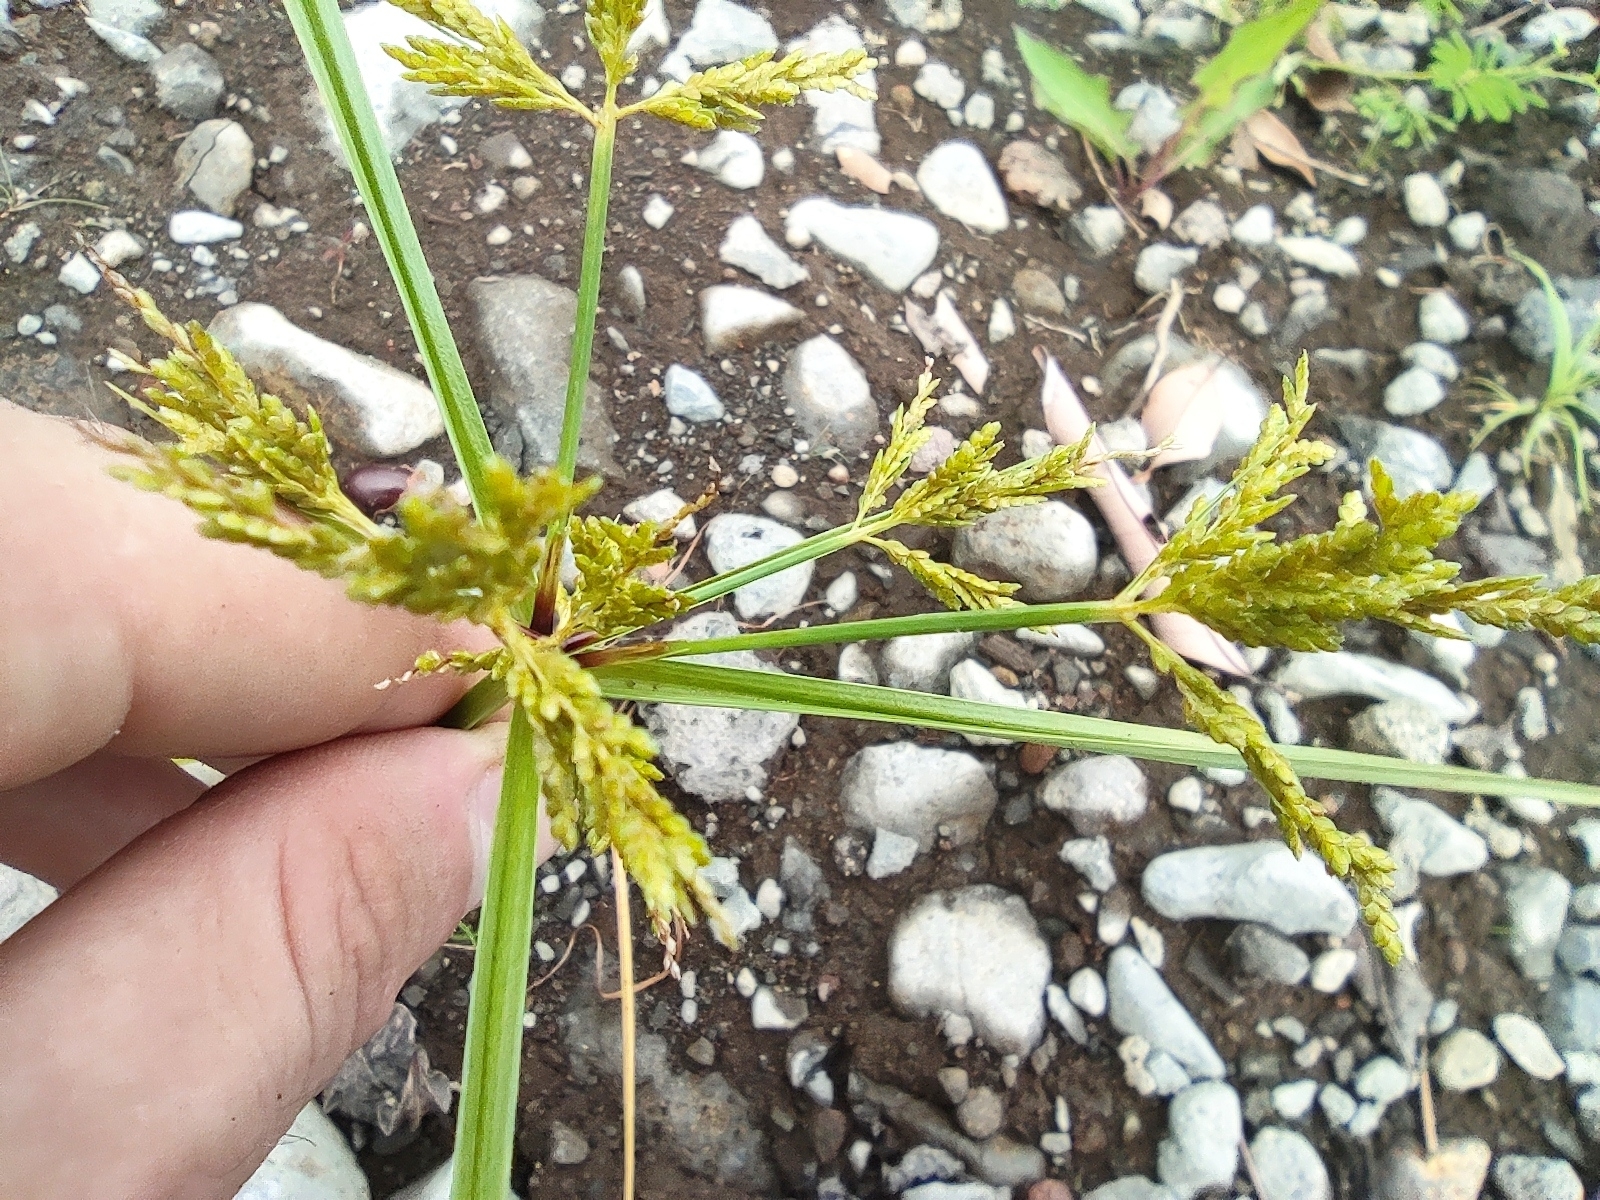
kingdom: Plantae
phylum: Tracheophyta
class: Liliopsida
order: Poales
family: Cyperaceae
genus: Cyperus
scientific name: Cyperus iria
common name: Ricefield flatsedge
